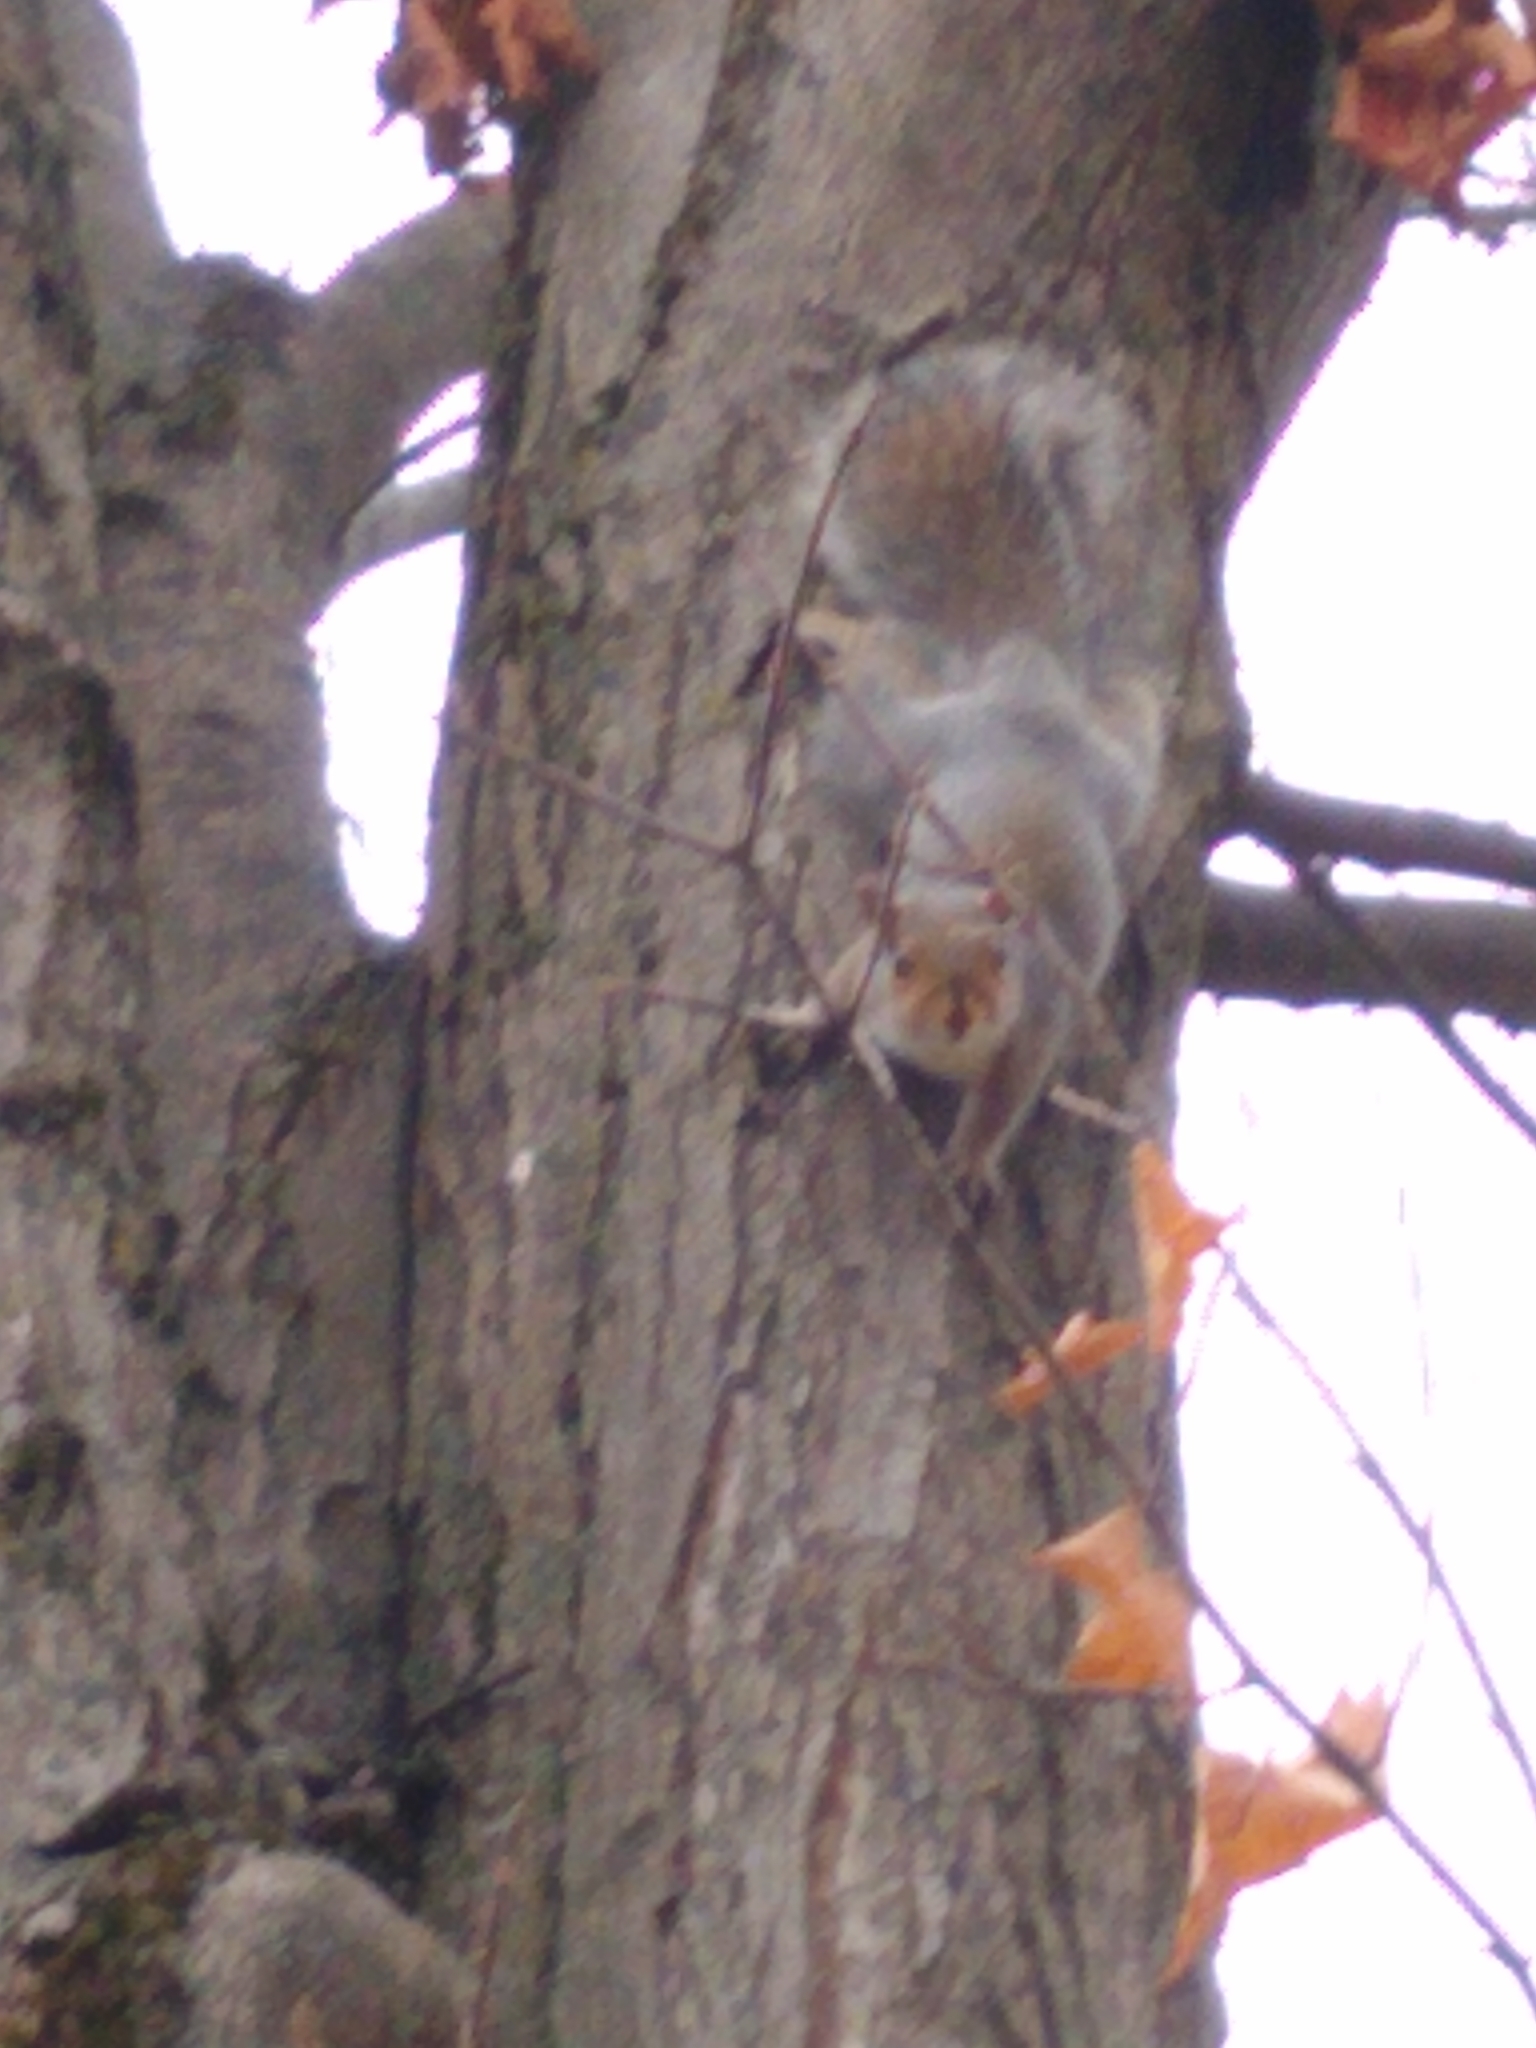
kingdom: Animalia
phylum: Chordata
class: Mammalia
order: Rodentia
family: Sciuridae
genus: Sciurus
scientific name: Sciurus carolinensis
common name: Eastern gray squirrel
